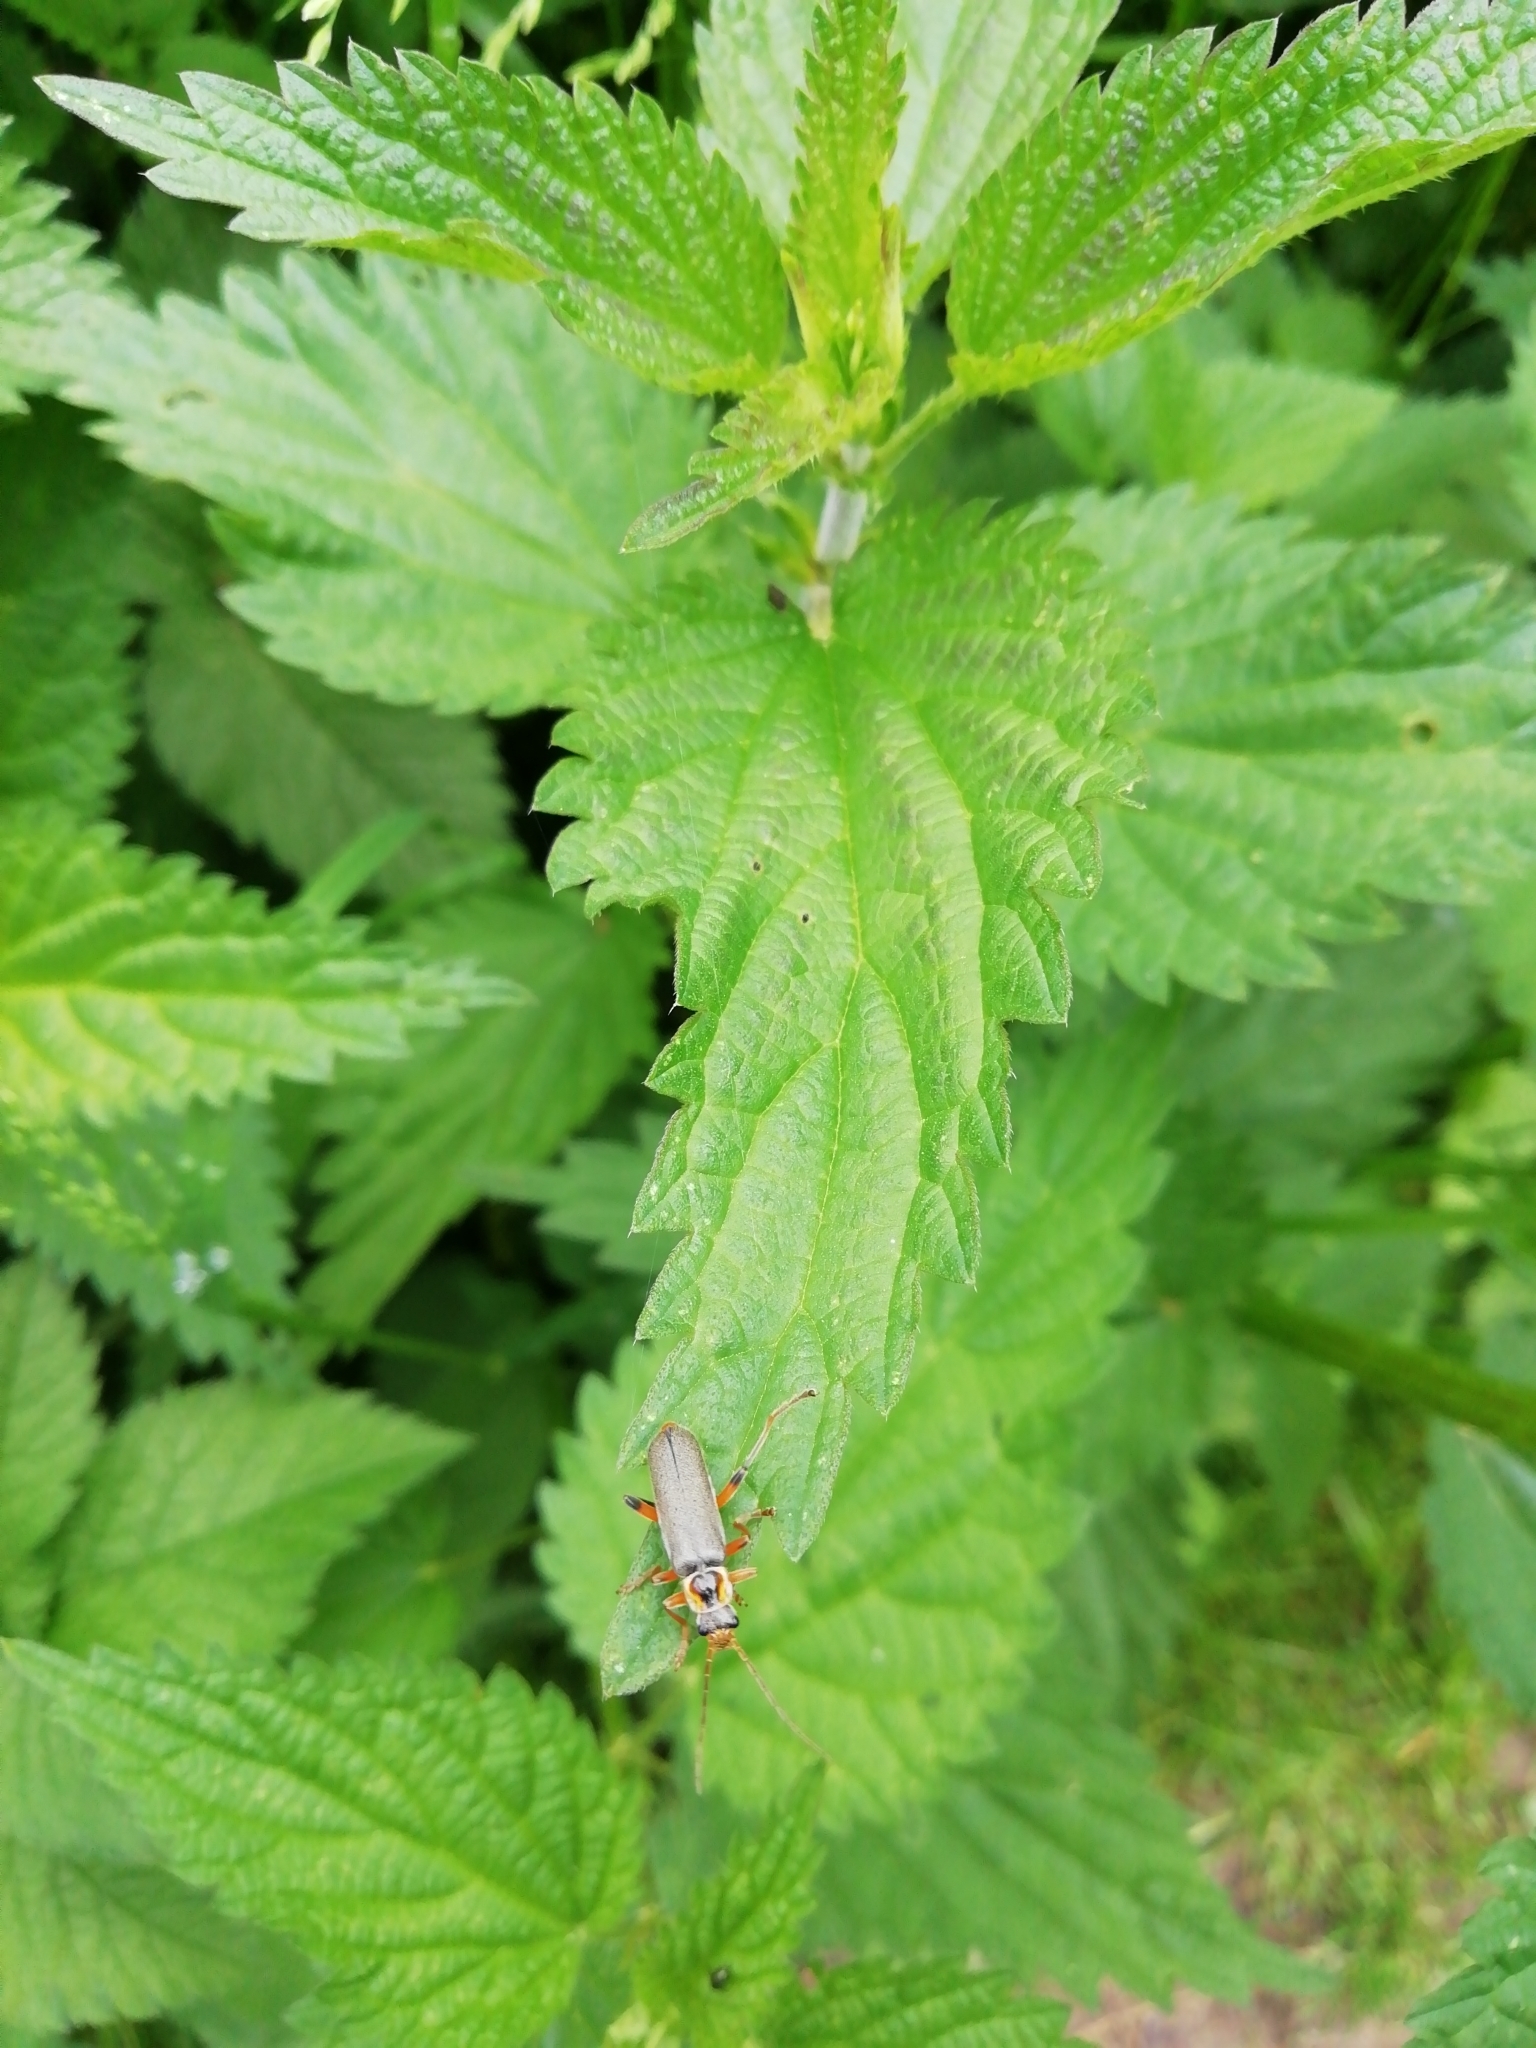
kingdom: Animalia
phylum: Arthropoda
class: Insecta
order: Coleoptera
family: Cantharidae
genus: Cantharis
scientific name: Cantharis nigricans
